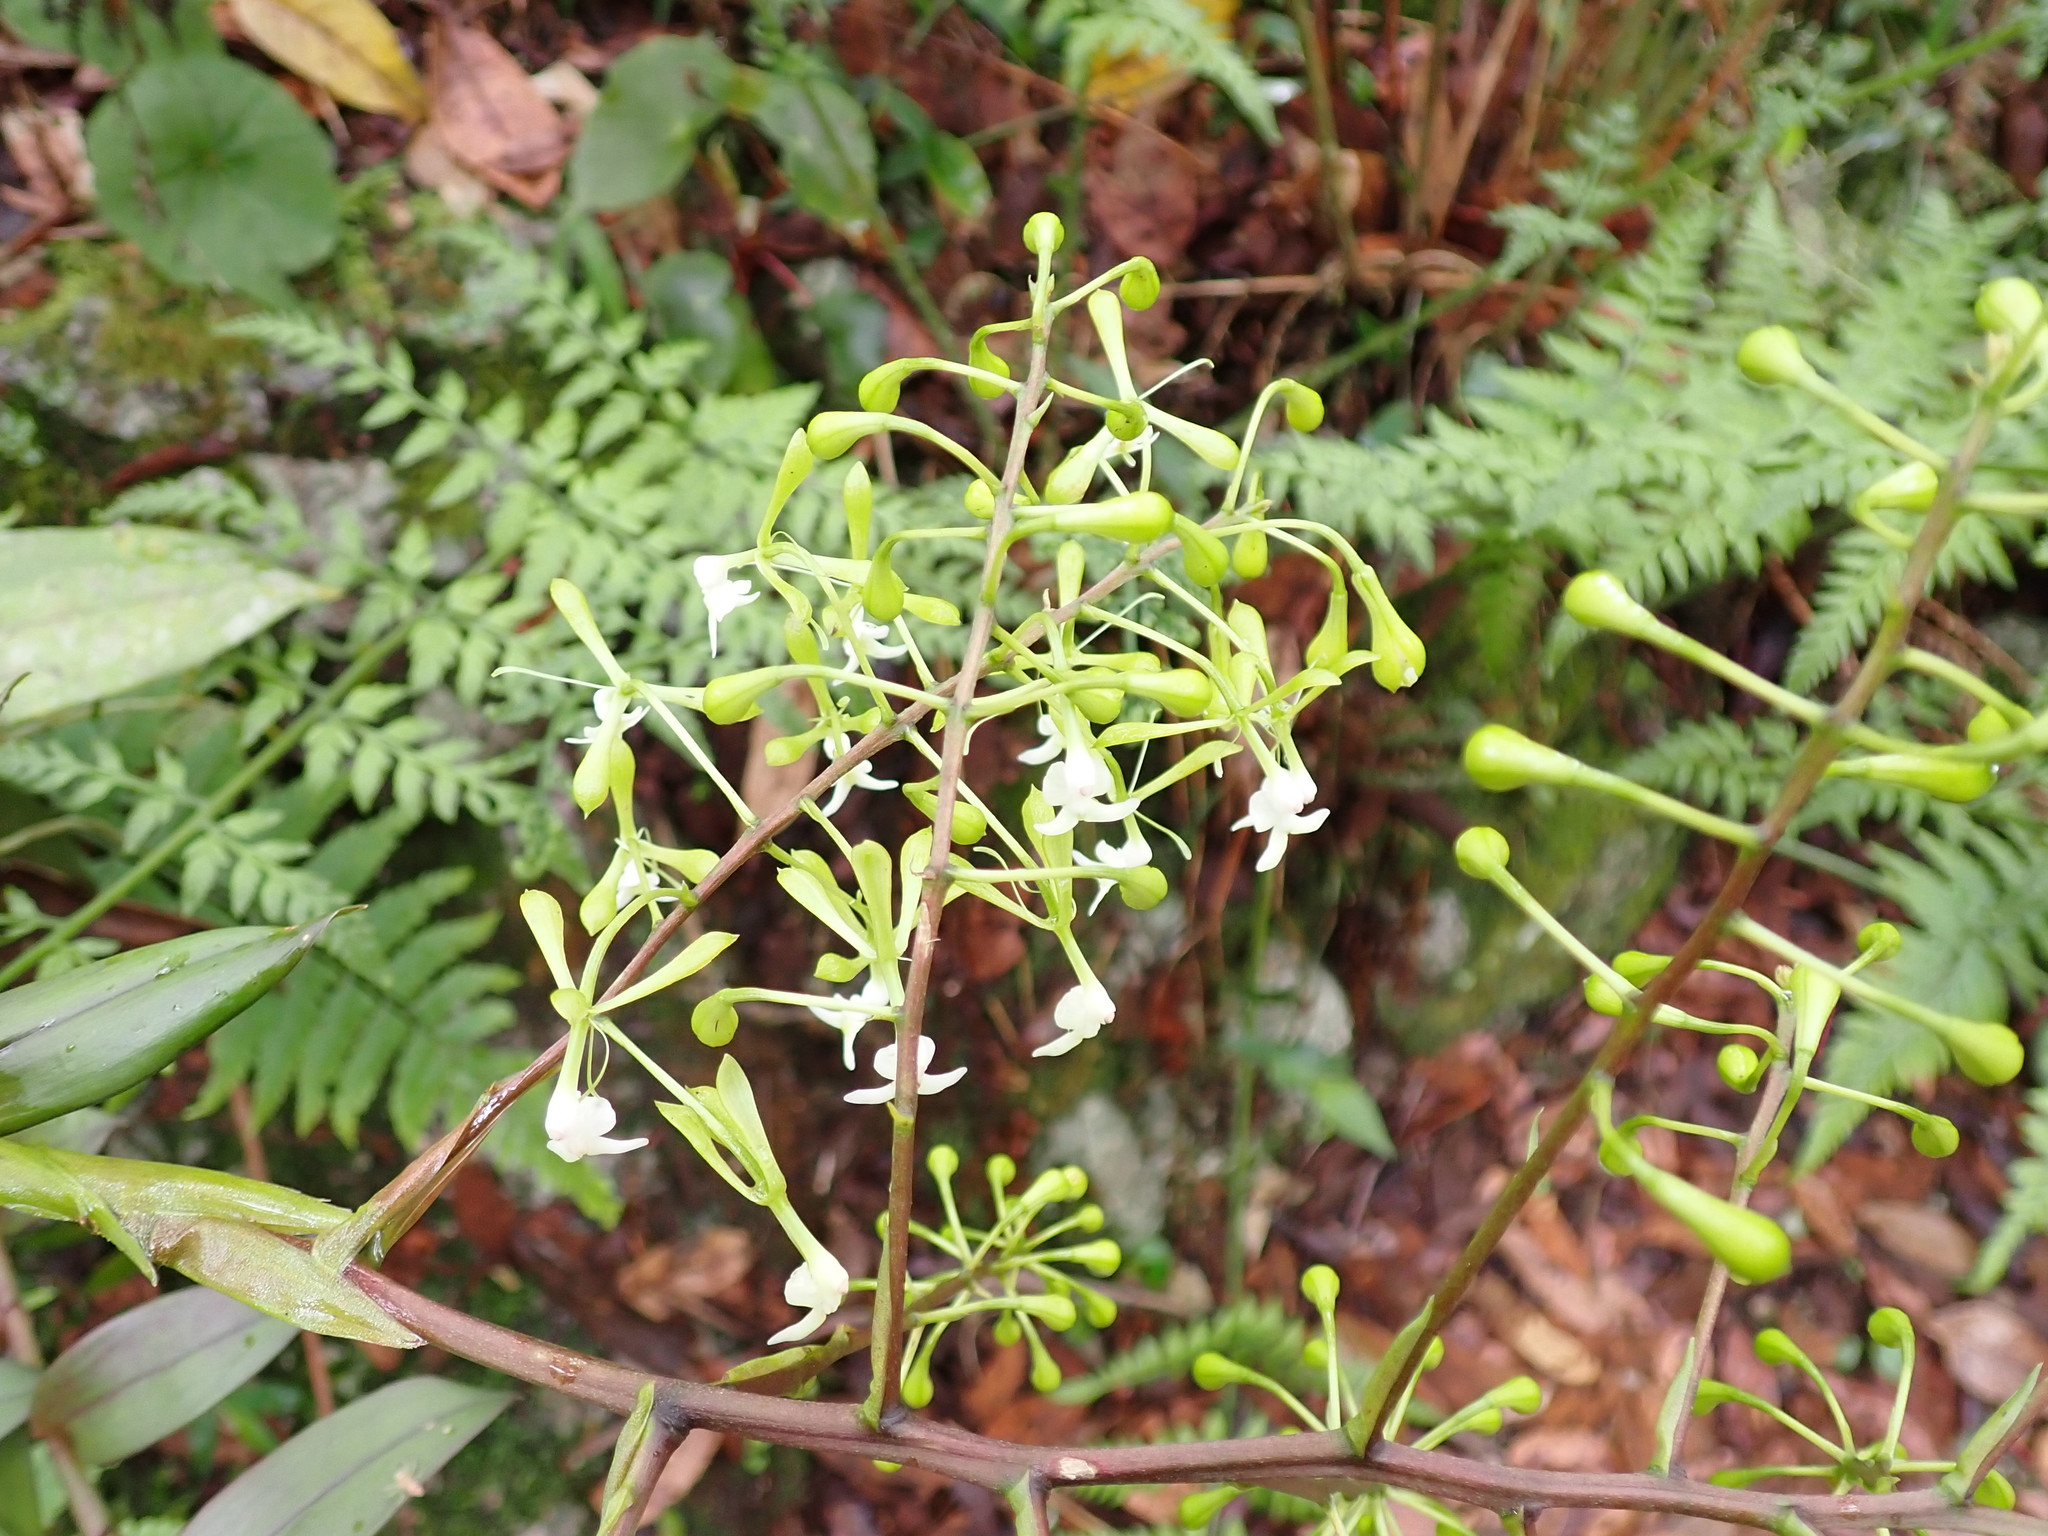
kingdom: Plantae
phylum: Tracheophyta
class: Liliopsida
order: Asparagales
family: Orchidaceae
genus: Epidendrum
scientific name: Epidendrum paniculourubambense
